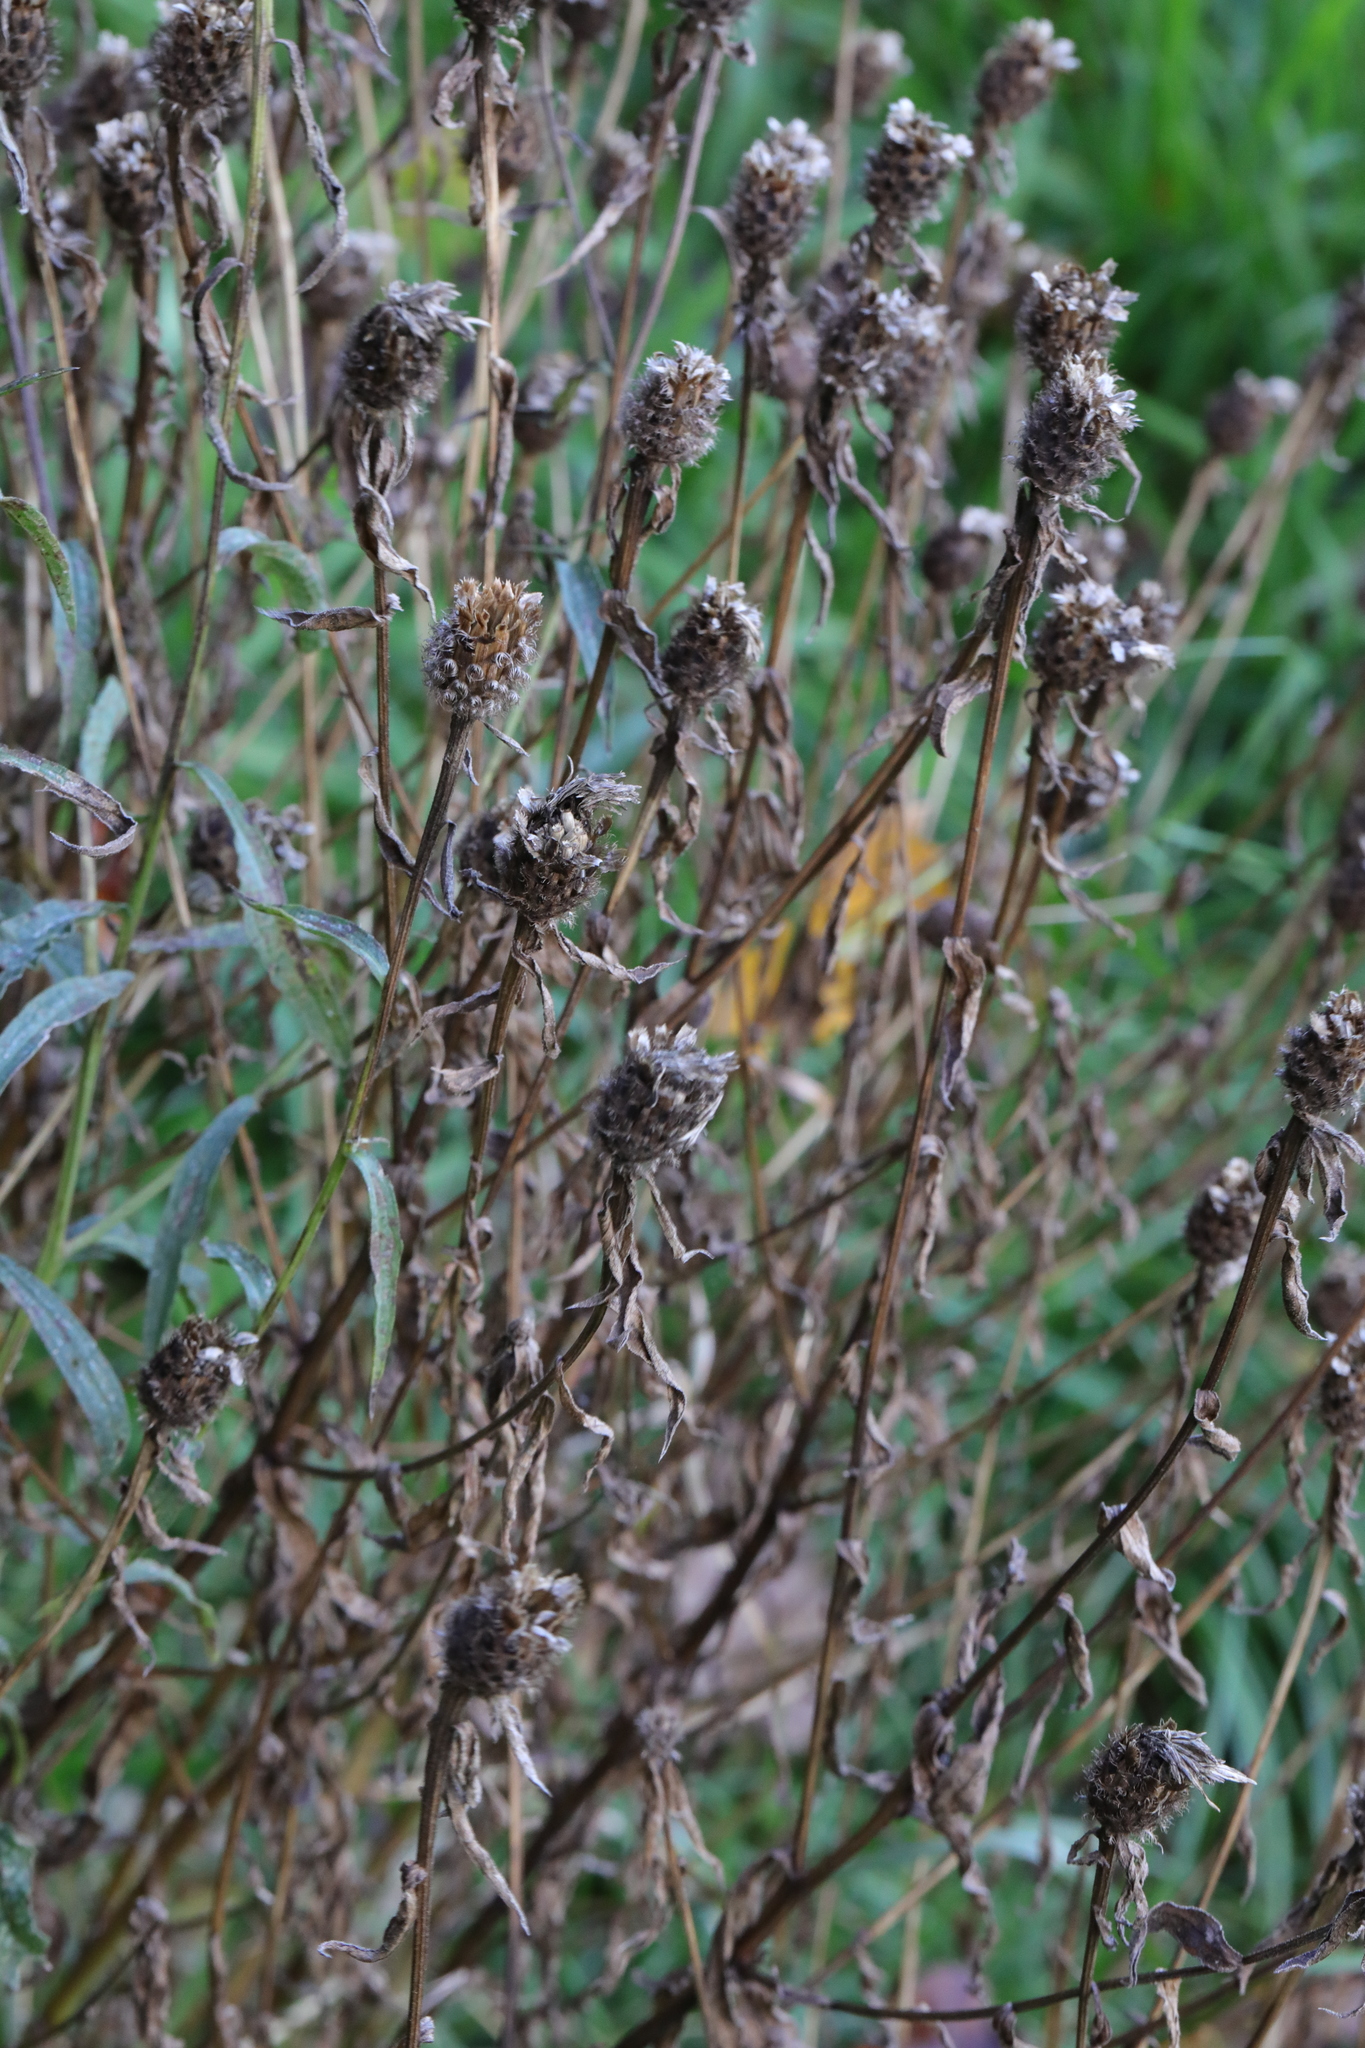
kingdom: Plantae
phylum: Tracheophyta
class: Magnoliopsida
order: Asterales
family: Asteraceae
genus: Centaurea
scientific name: Centaurea nigra
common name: Lesser knapweed
